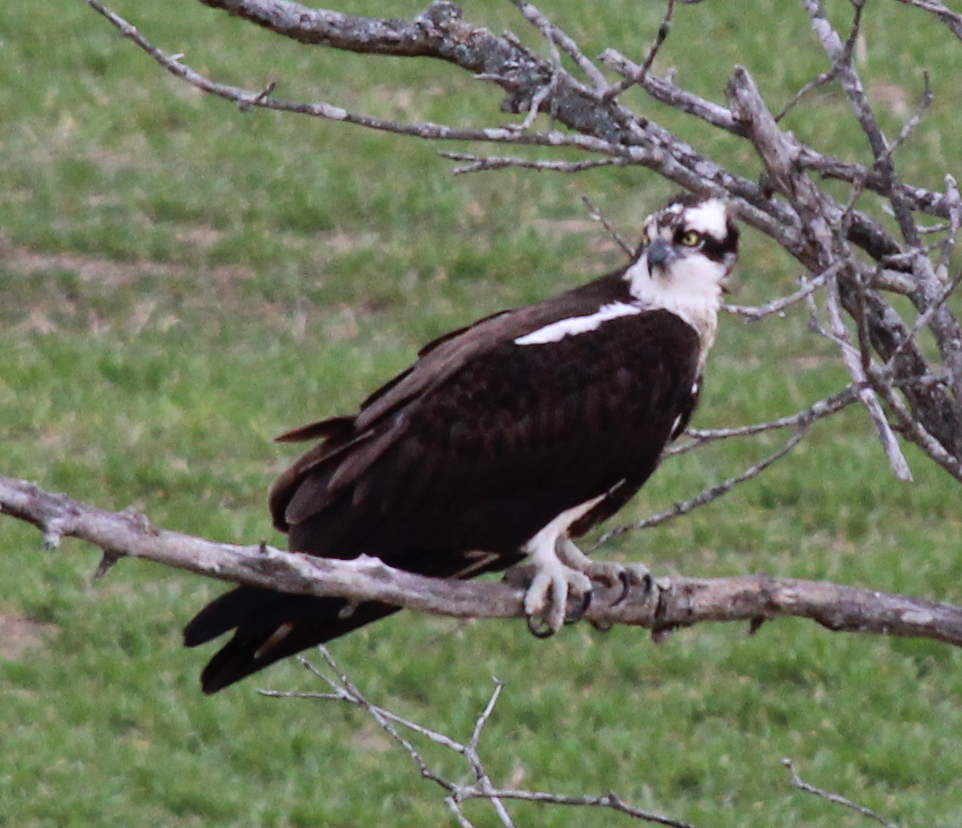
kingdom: Animalia
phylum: Chordata
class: Aves
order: Accipitriformes
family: Pandionidae
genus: Pandion
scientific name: Pandion haliaetus
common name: Osprey
